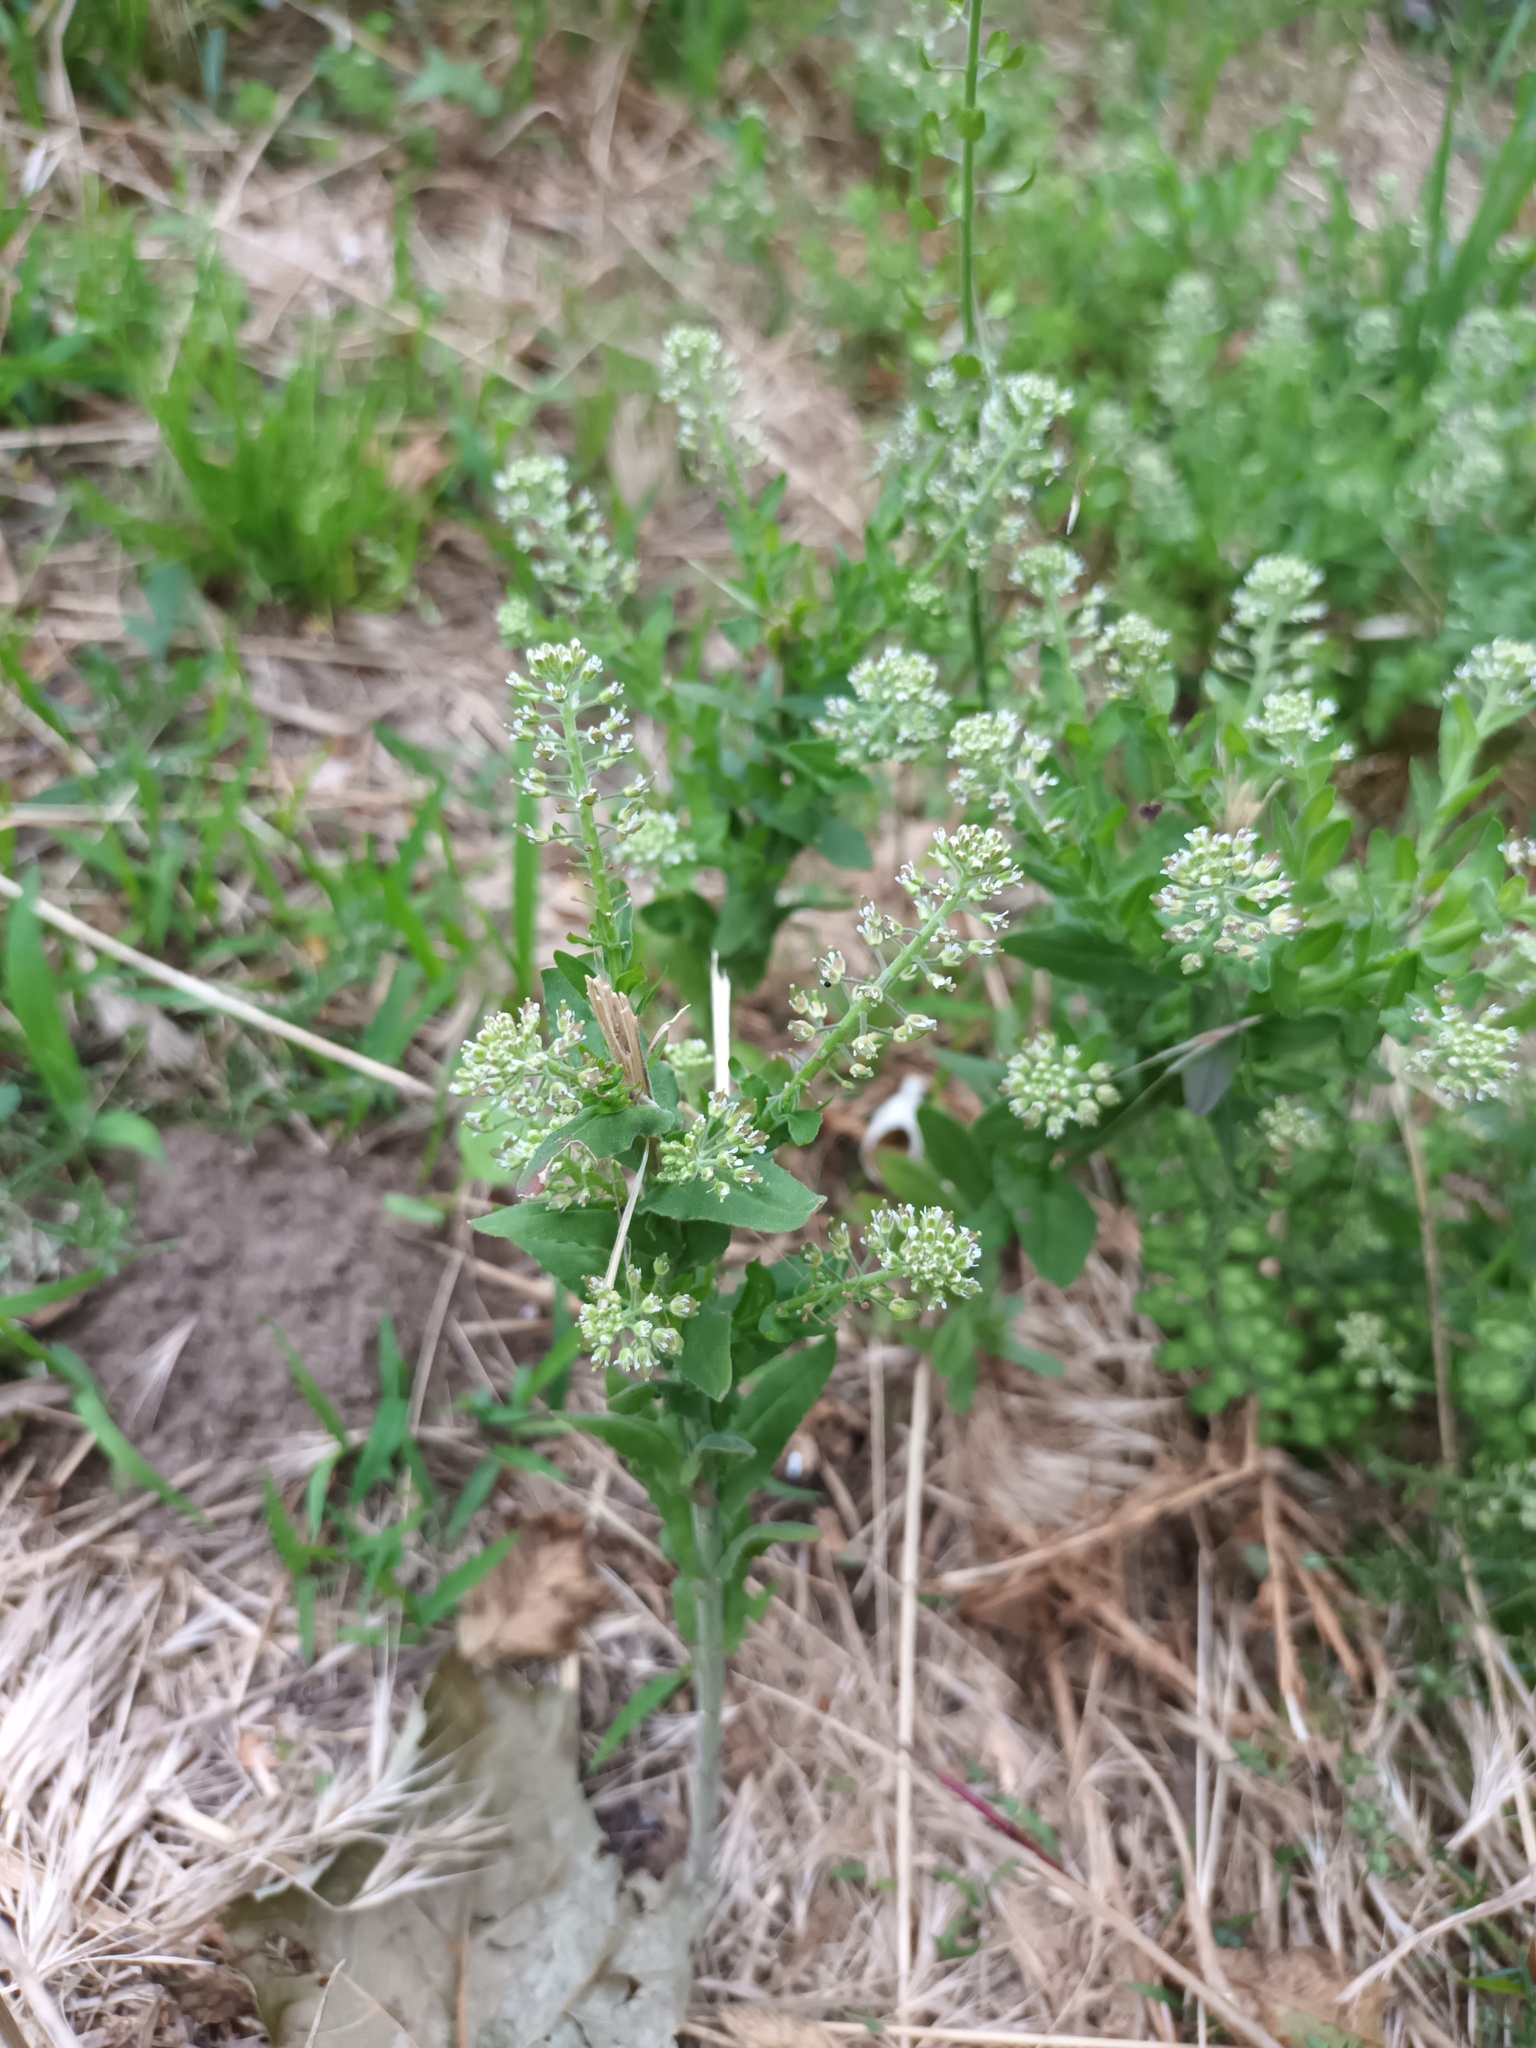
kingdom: Plantae
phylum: Tracheophyta
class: Magnoliopsida
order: Brassicales
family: Brassicaceae
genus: Lepidium
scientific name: Lepidium campestre
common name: Field pepperwort
